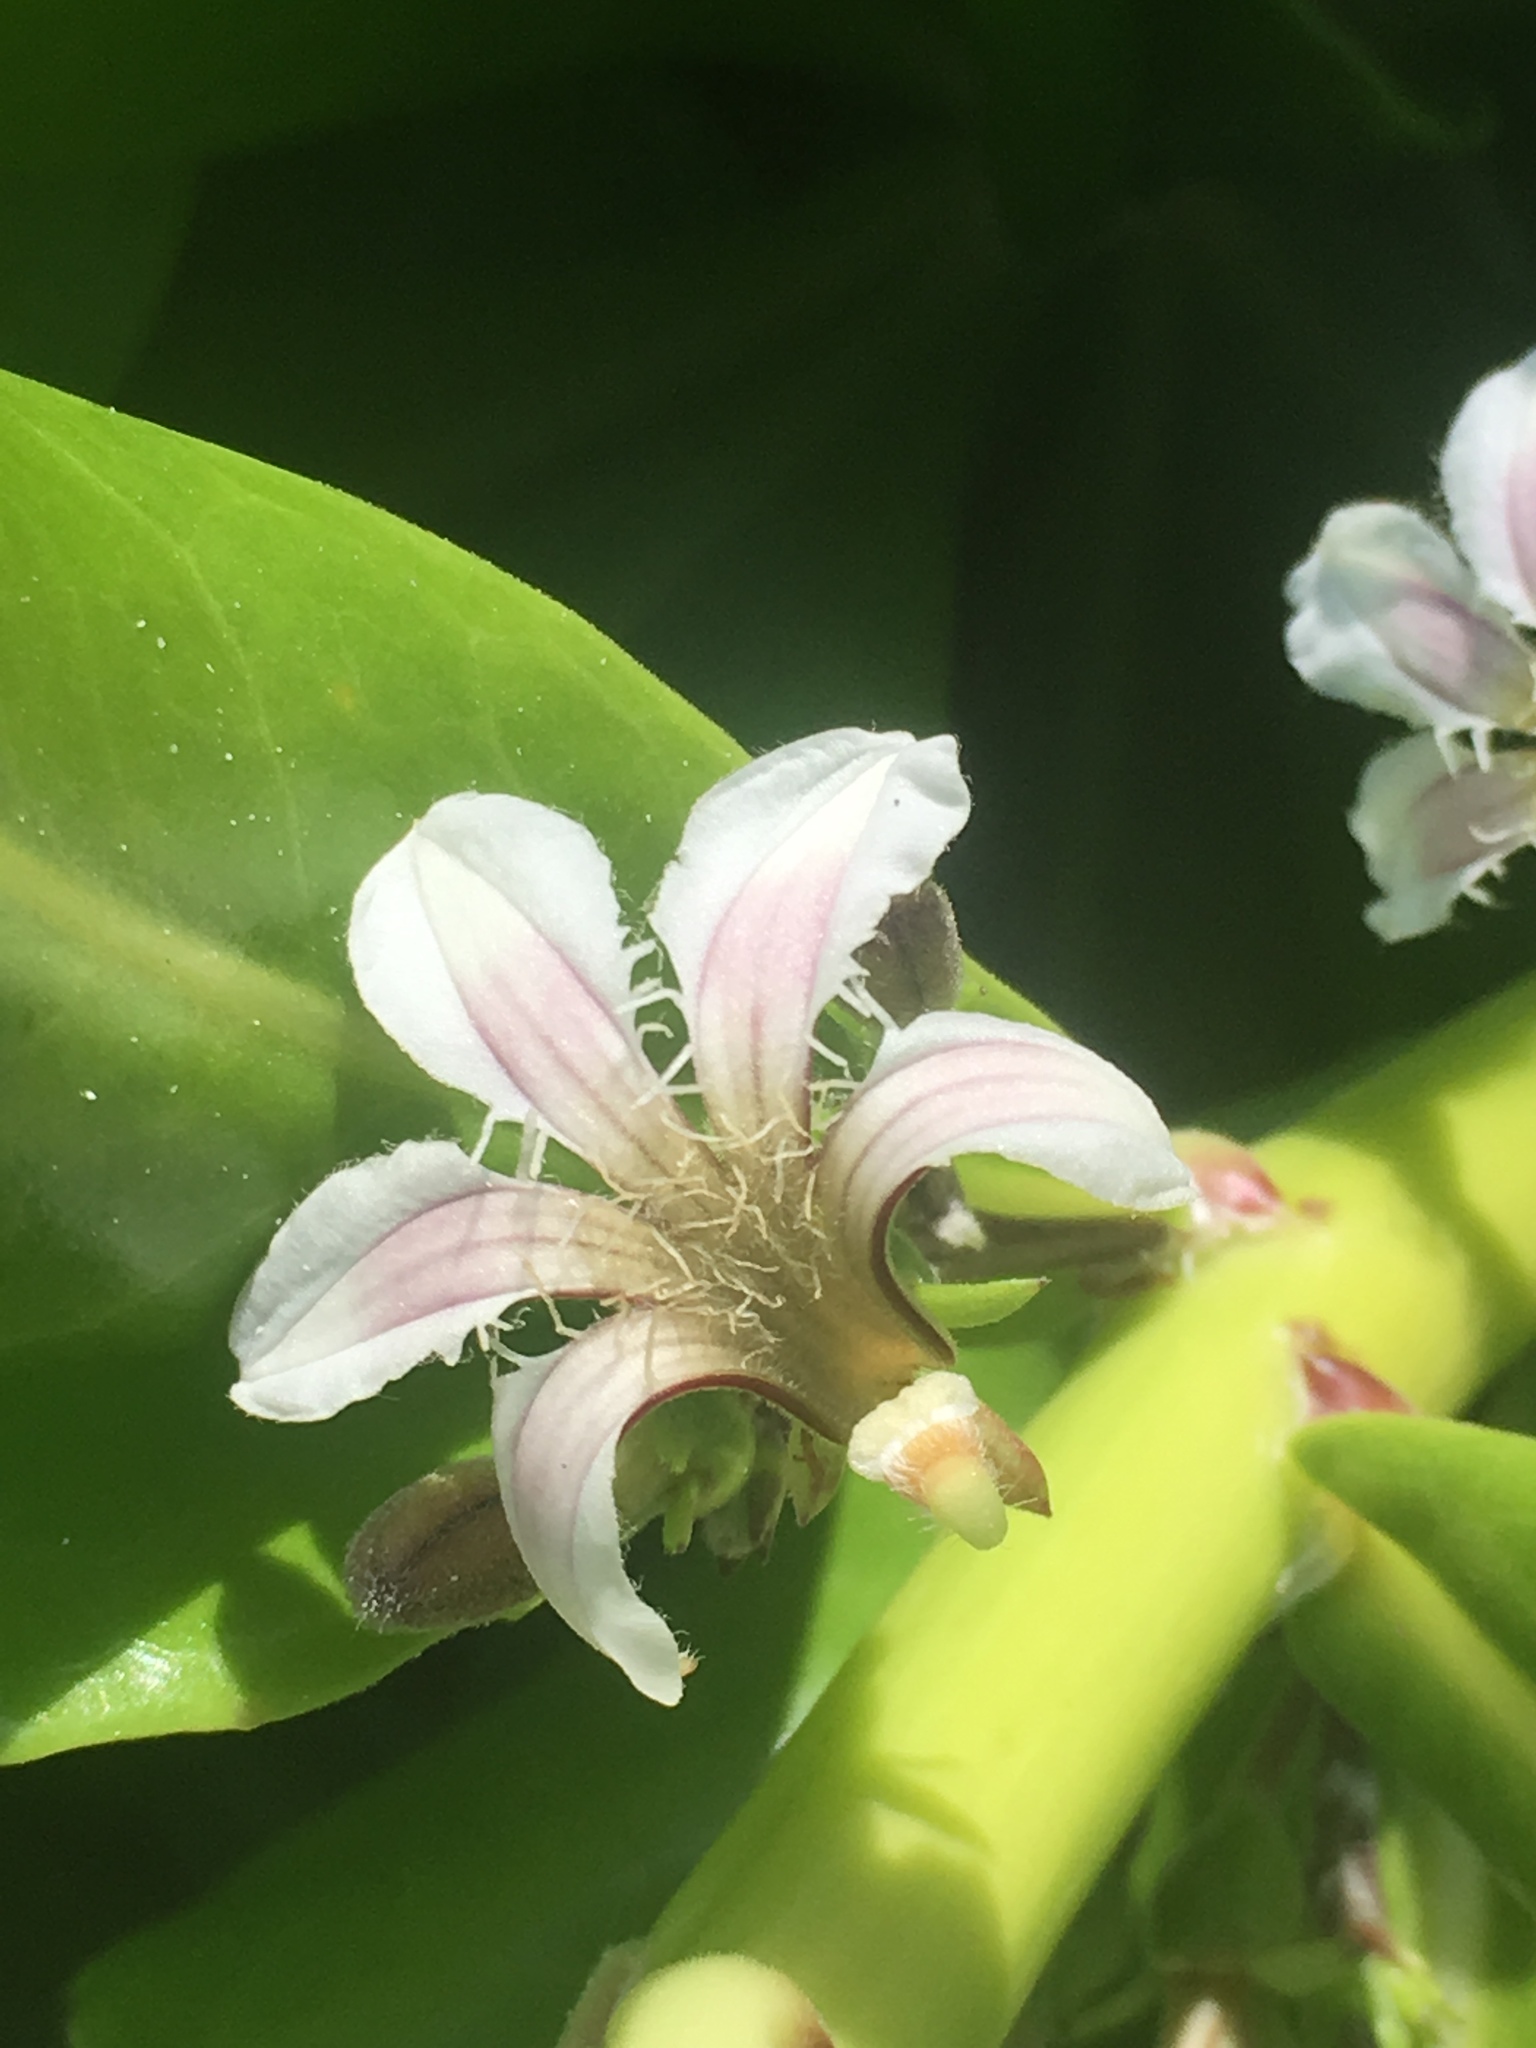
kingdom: Plantae
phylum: Tracheophyta
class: Magnoliopsida
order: Asterales
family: Goodeniaceae
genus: Scaevola
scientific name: Scaevola taccada
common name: Sea lettucetree
